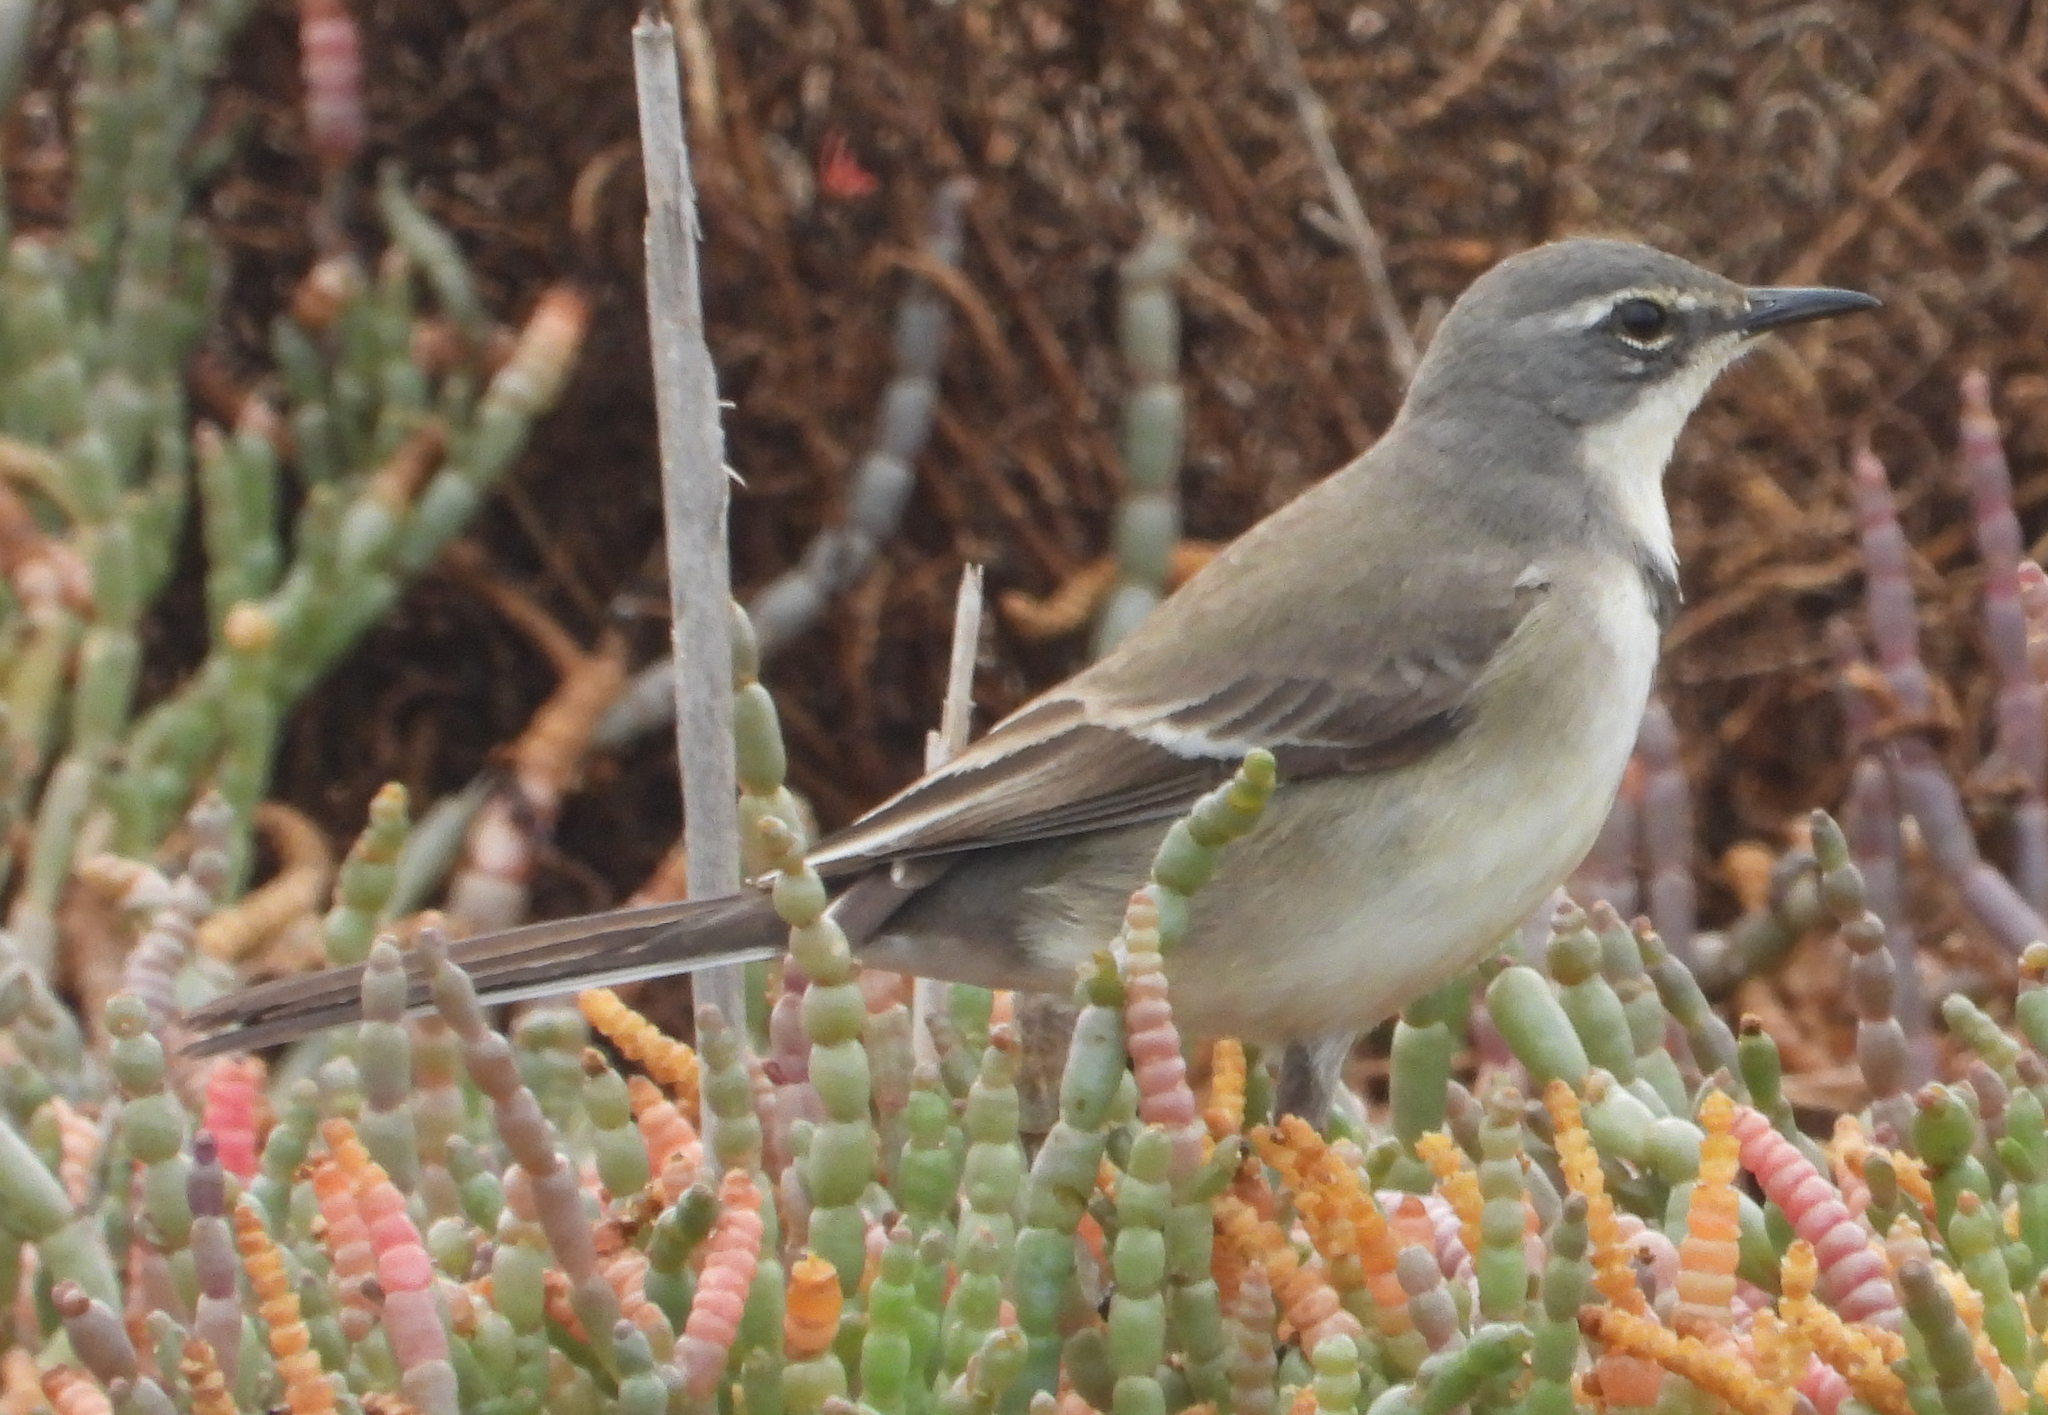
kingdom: Animalia
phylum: Chordata
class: Aves
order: Passeriformes
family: Motacillidae
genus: Motacilla
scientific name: Motacilla capensis
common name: Cape wagtail
